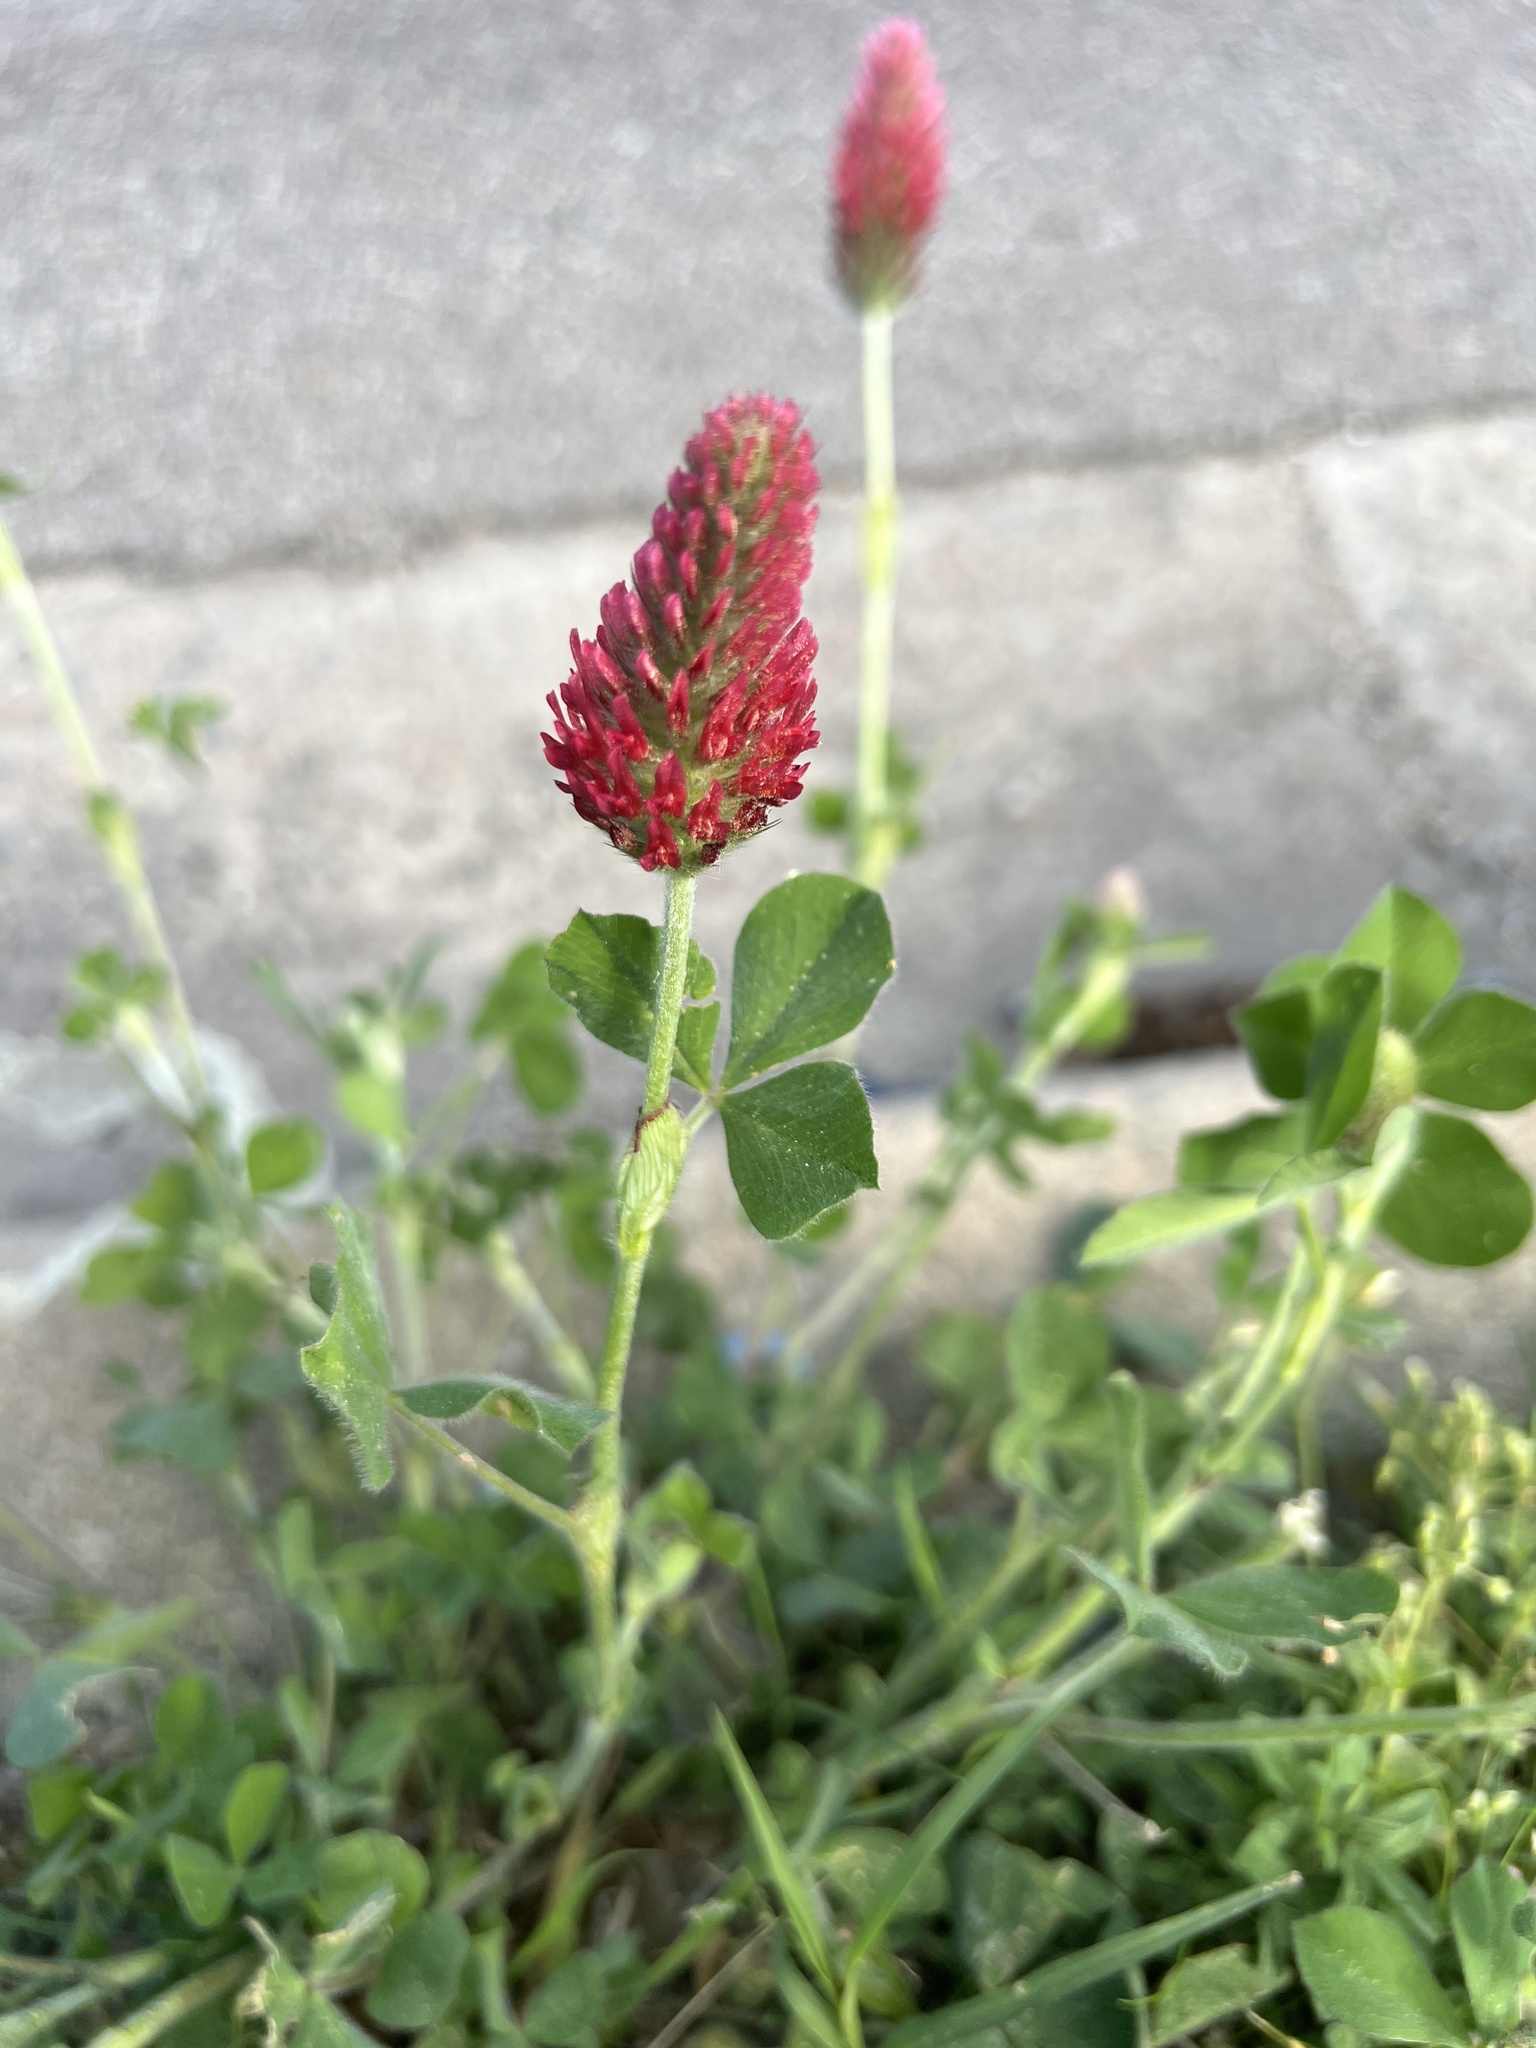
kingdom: Plantae
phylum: Tracheophyta
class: Magnoliopsida
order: Fabales
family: Fabaceae
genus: Trifolium
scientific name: Trifolium incarnatum
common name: Crimson clover
